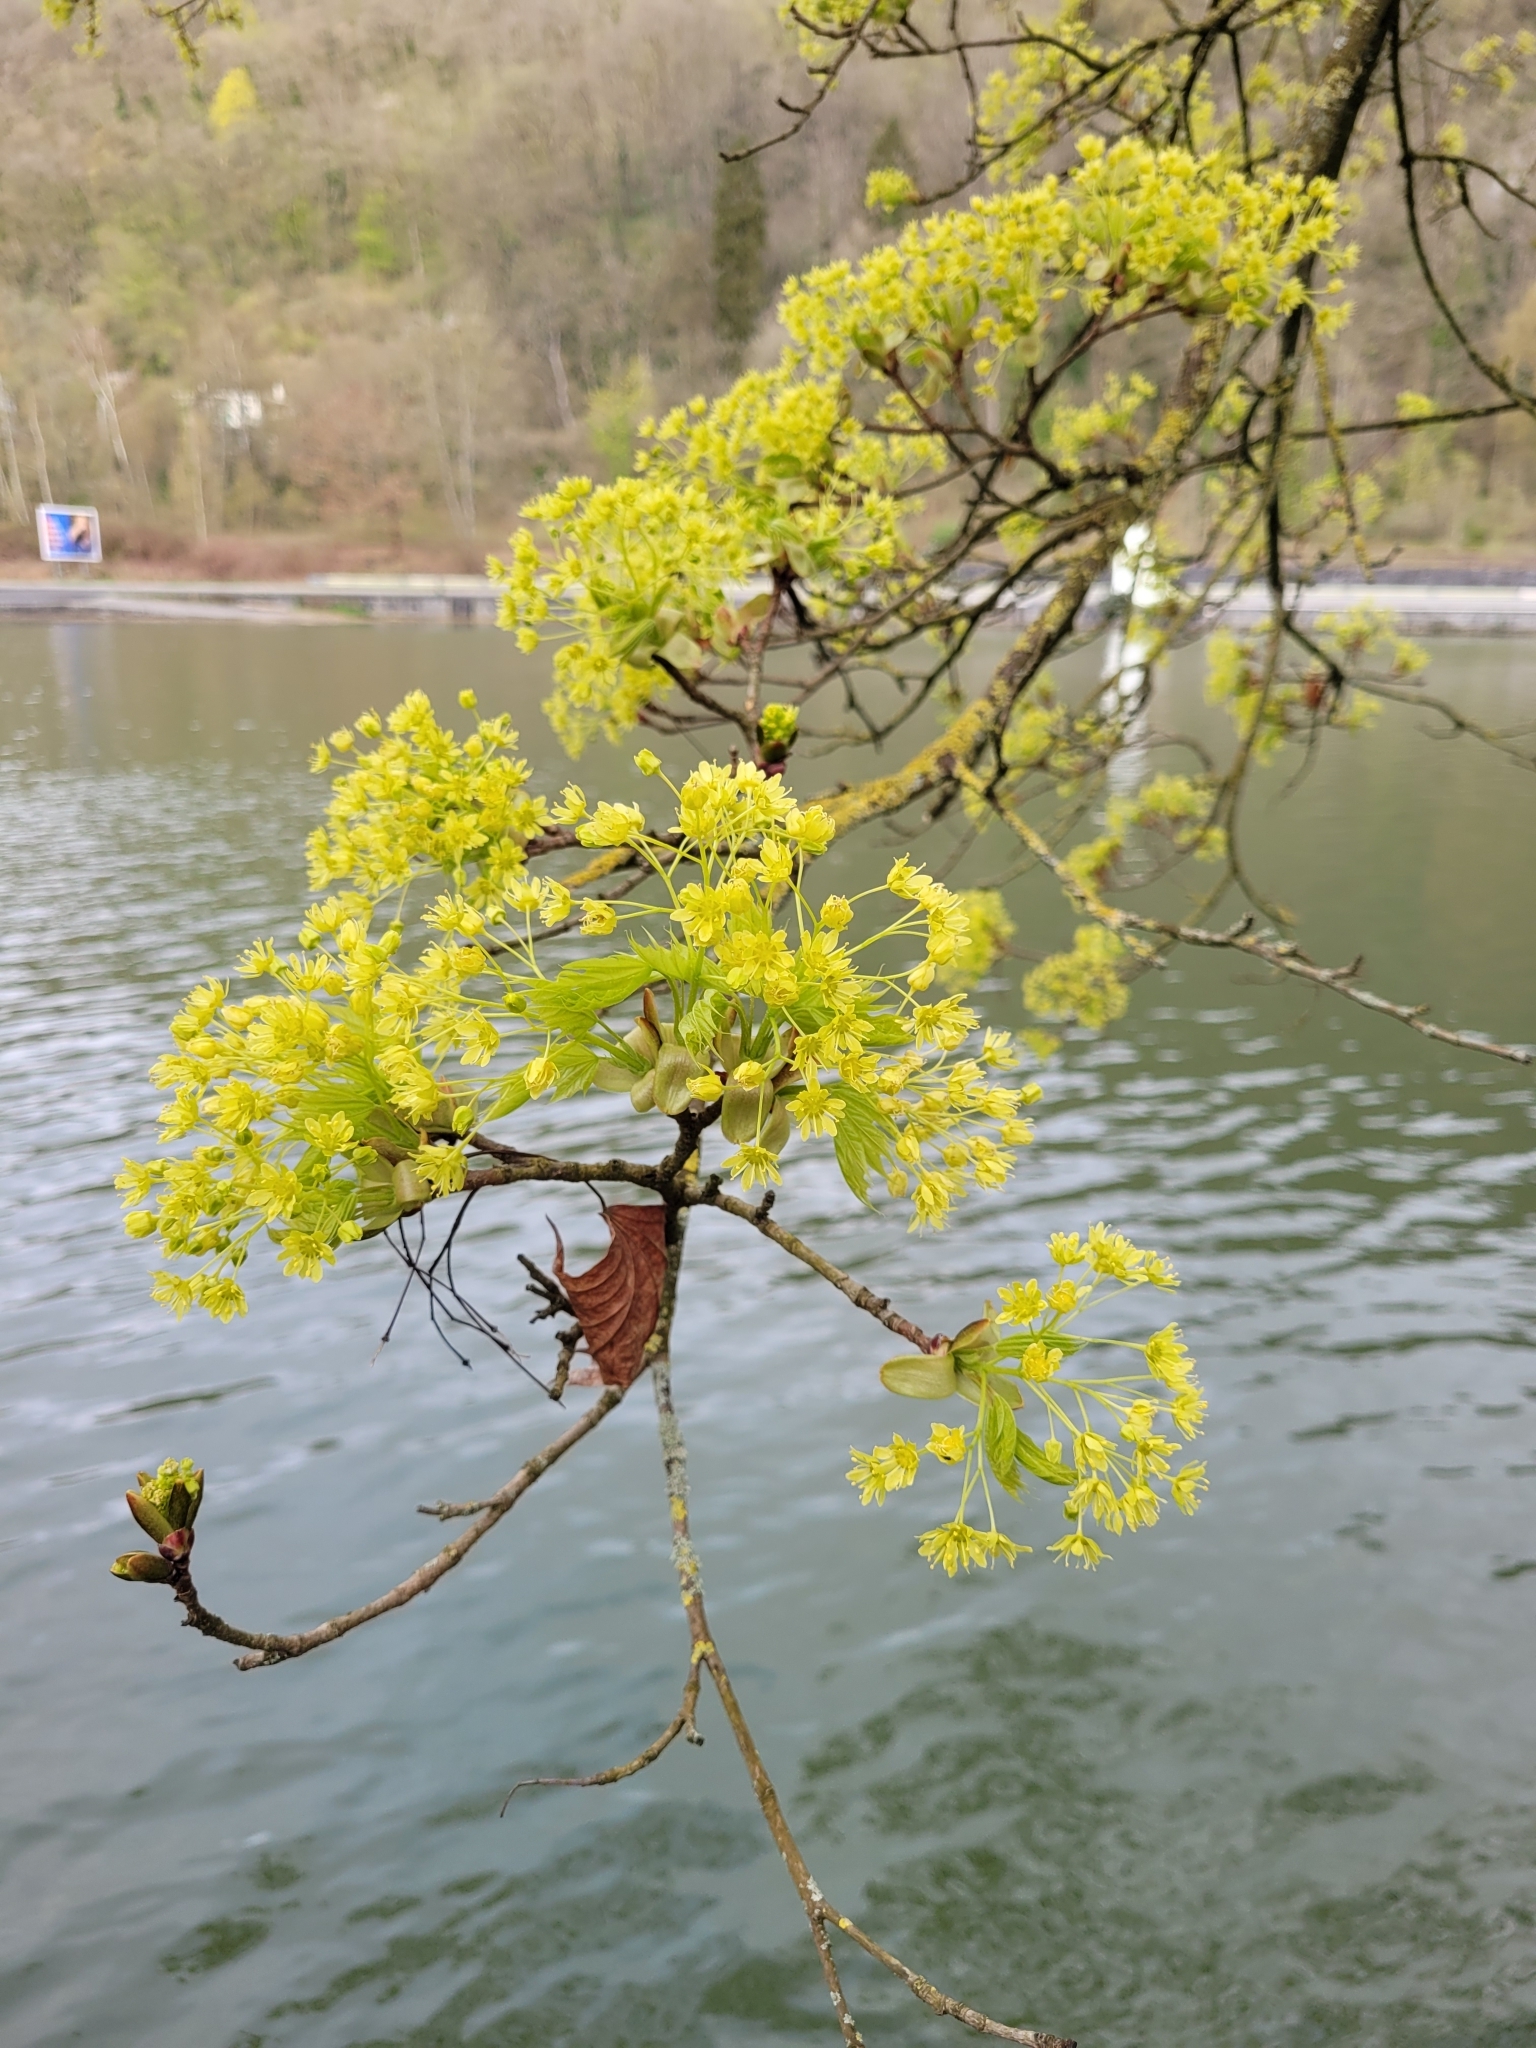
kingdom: Plantae
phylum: Tracheophyta
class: Magnoliopsida
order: Sapindales
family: Sapindaceae
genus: Acer
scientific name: Acer platanoides
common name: Norway maple
